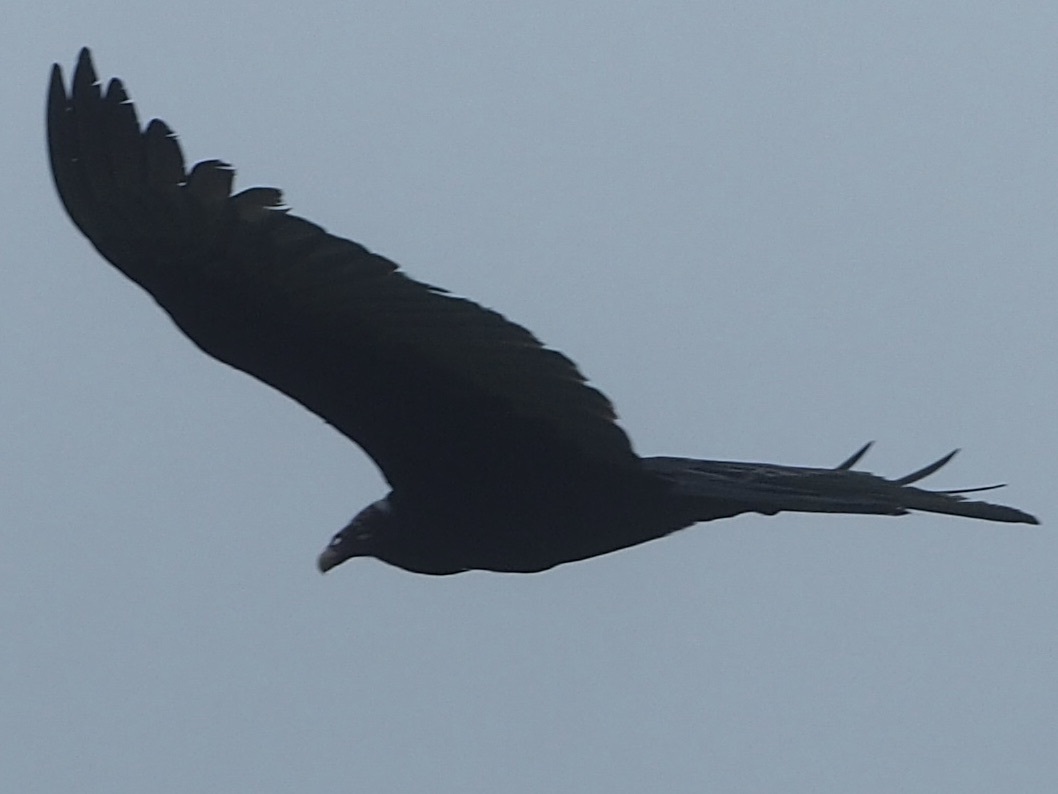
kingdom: Animalia
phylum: Chordata
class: Aves
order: Accipitriformes
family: Cathartidae
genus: Cathartes
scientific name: Cathartes aura
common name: Turkey vulture
